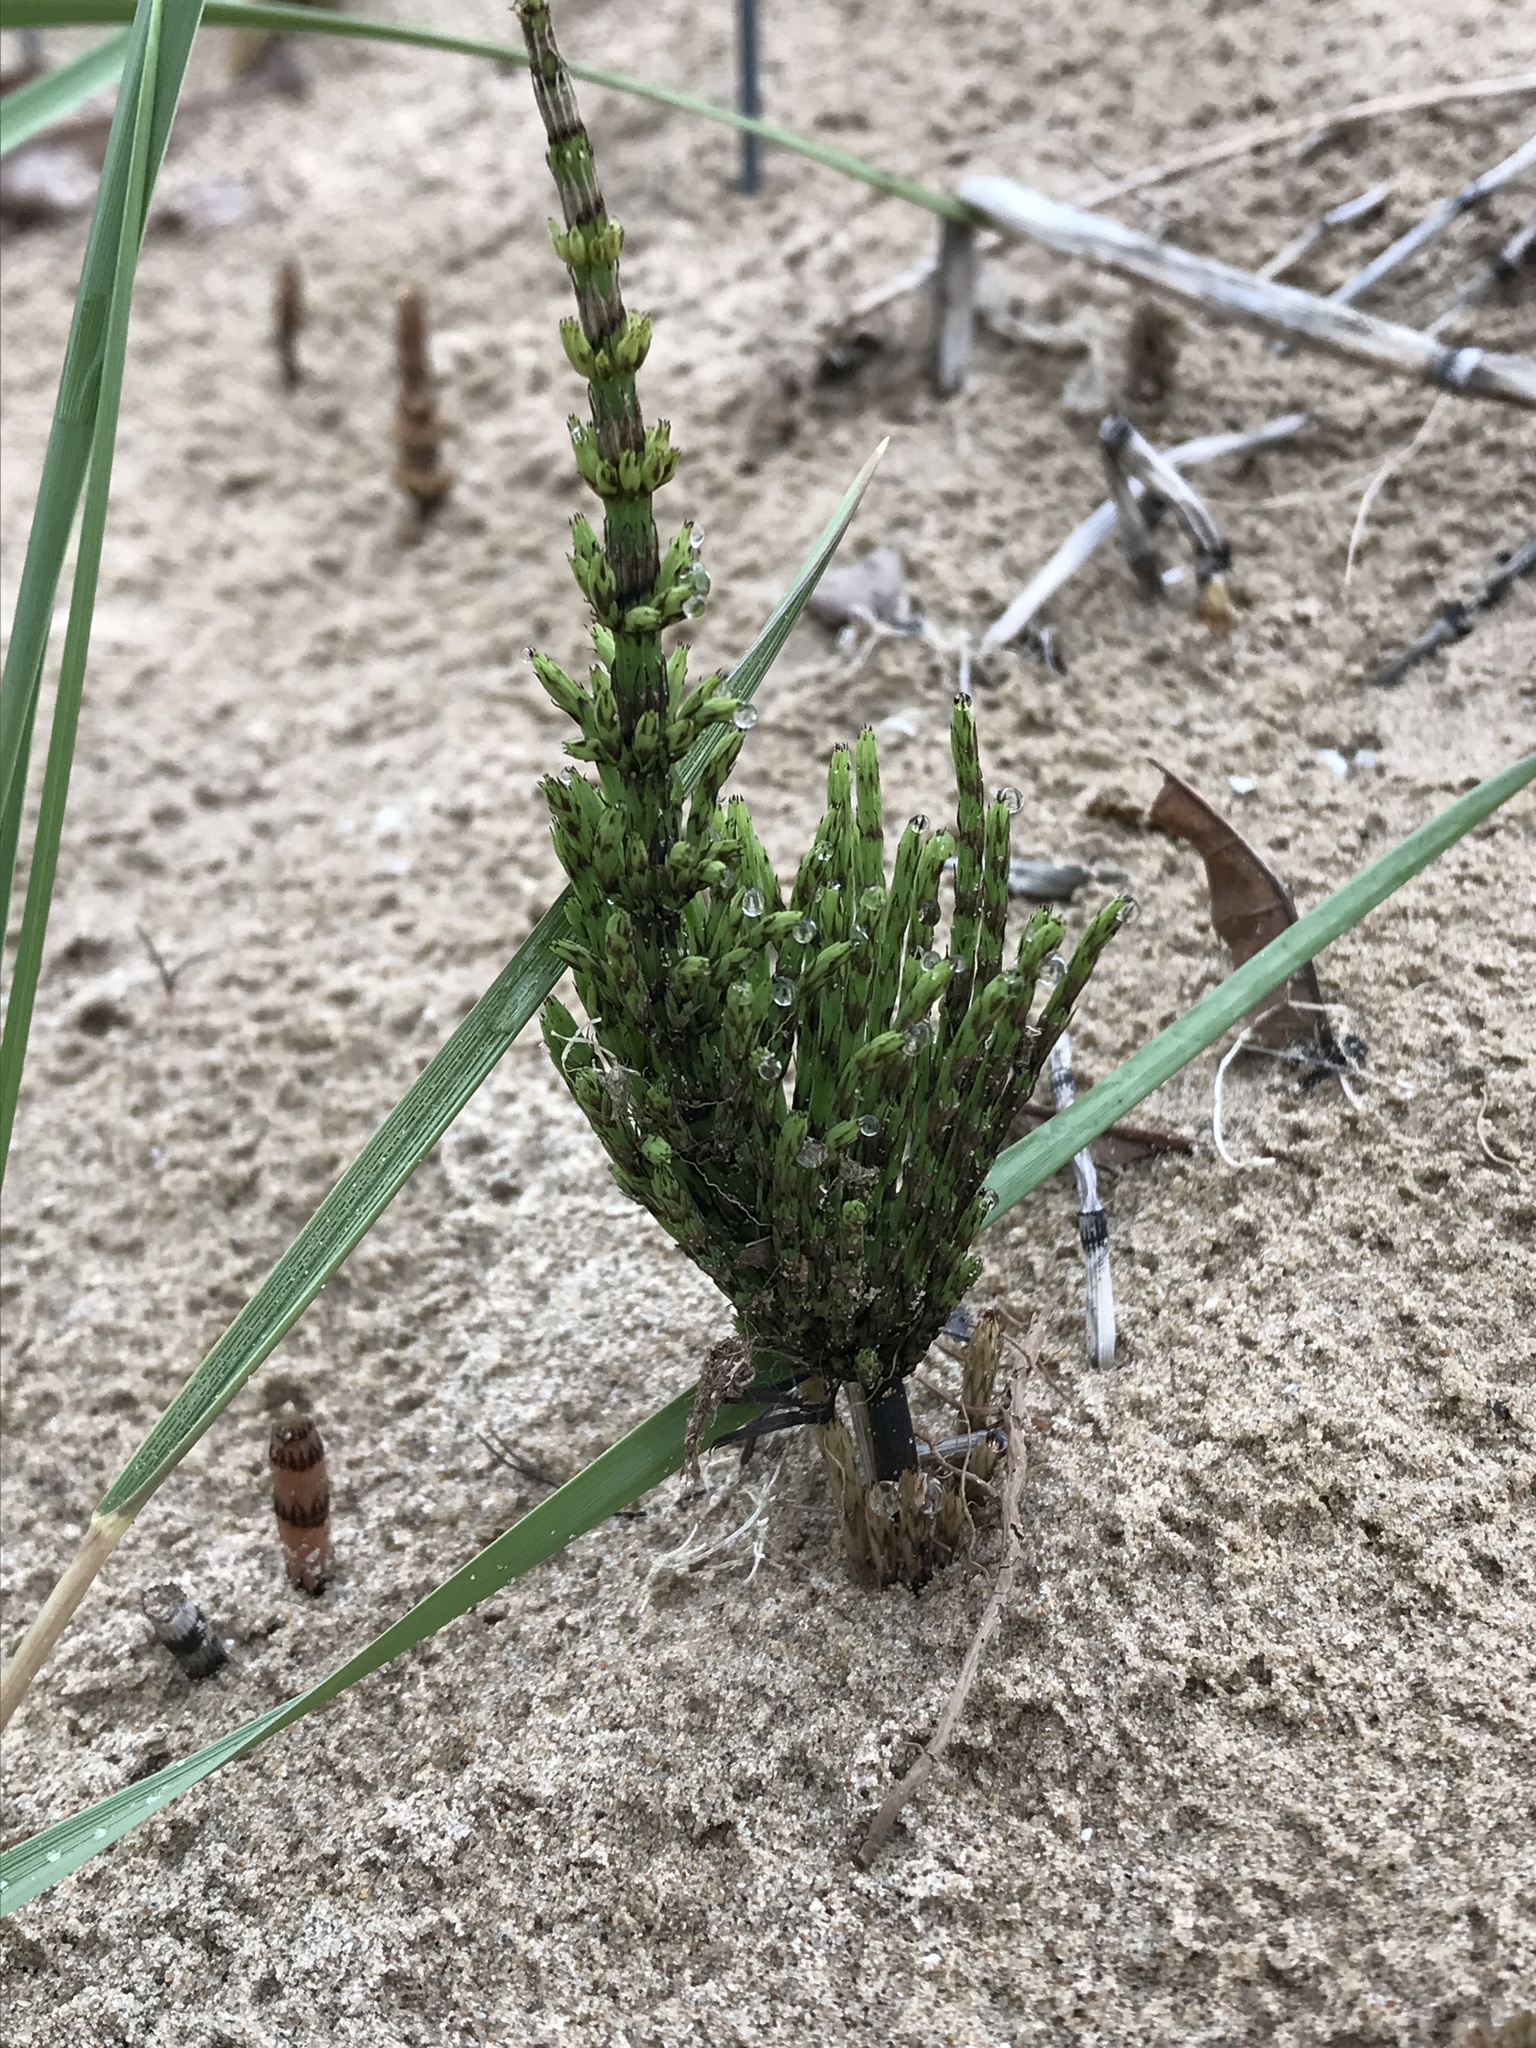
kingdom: Plantae
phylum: Tracheophyta
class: Polypodiopsida
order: Equisetales
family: Equisetaceae
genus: Equisetum
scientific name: Equisetum arvense
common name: Field horsetail
